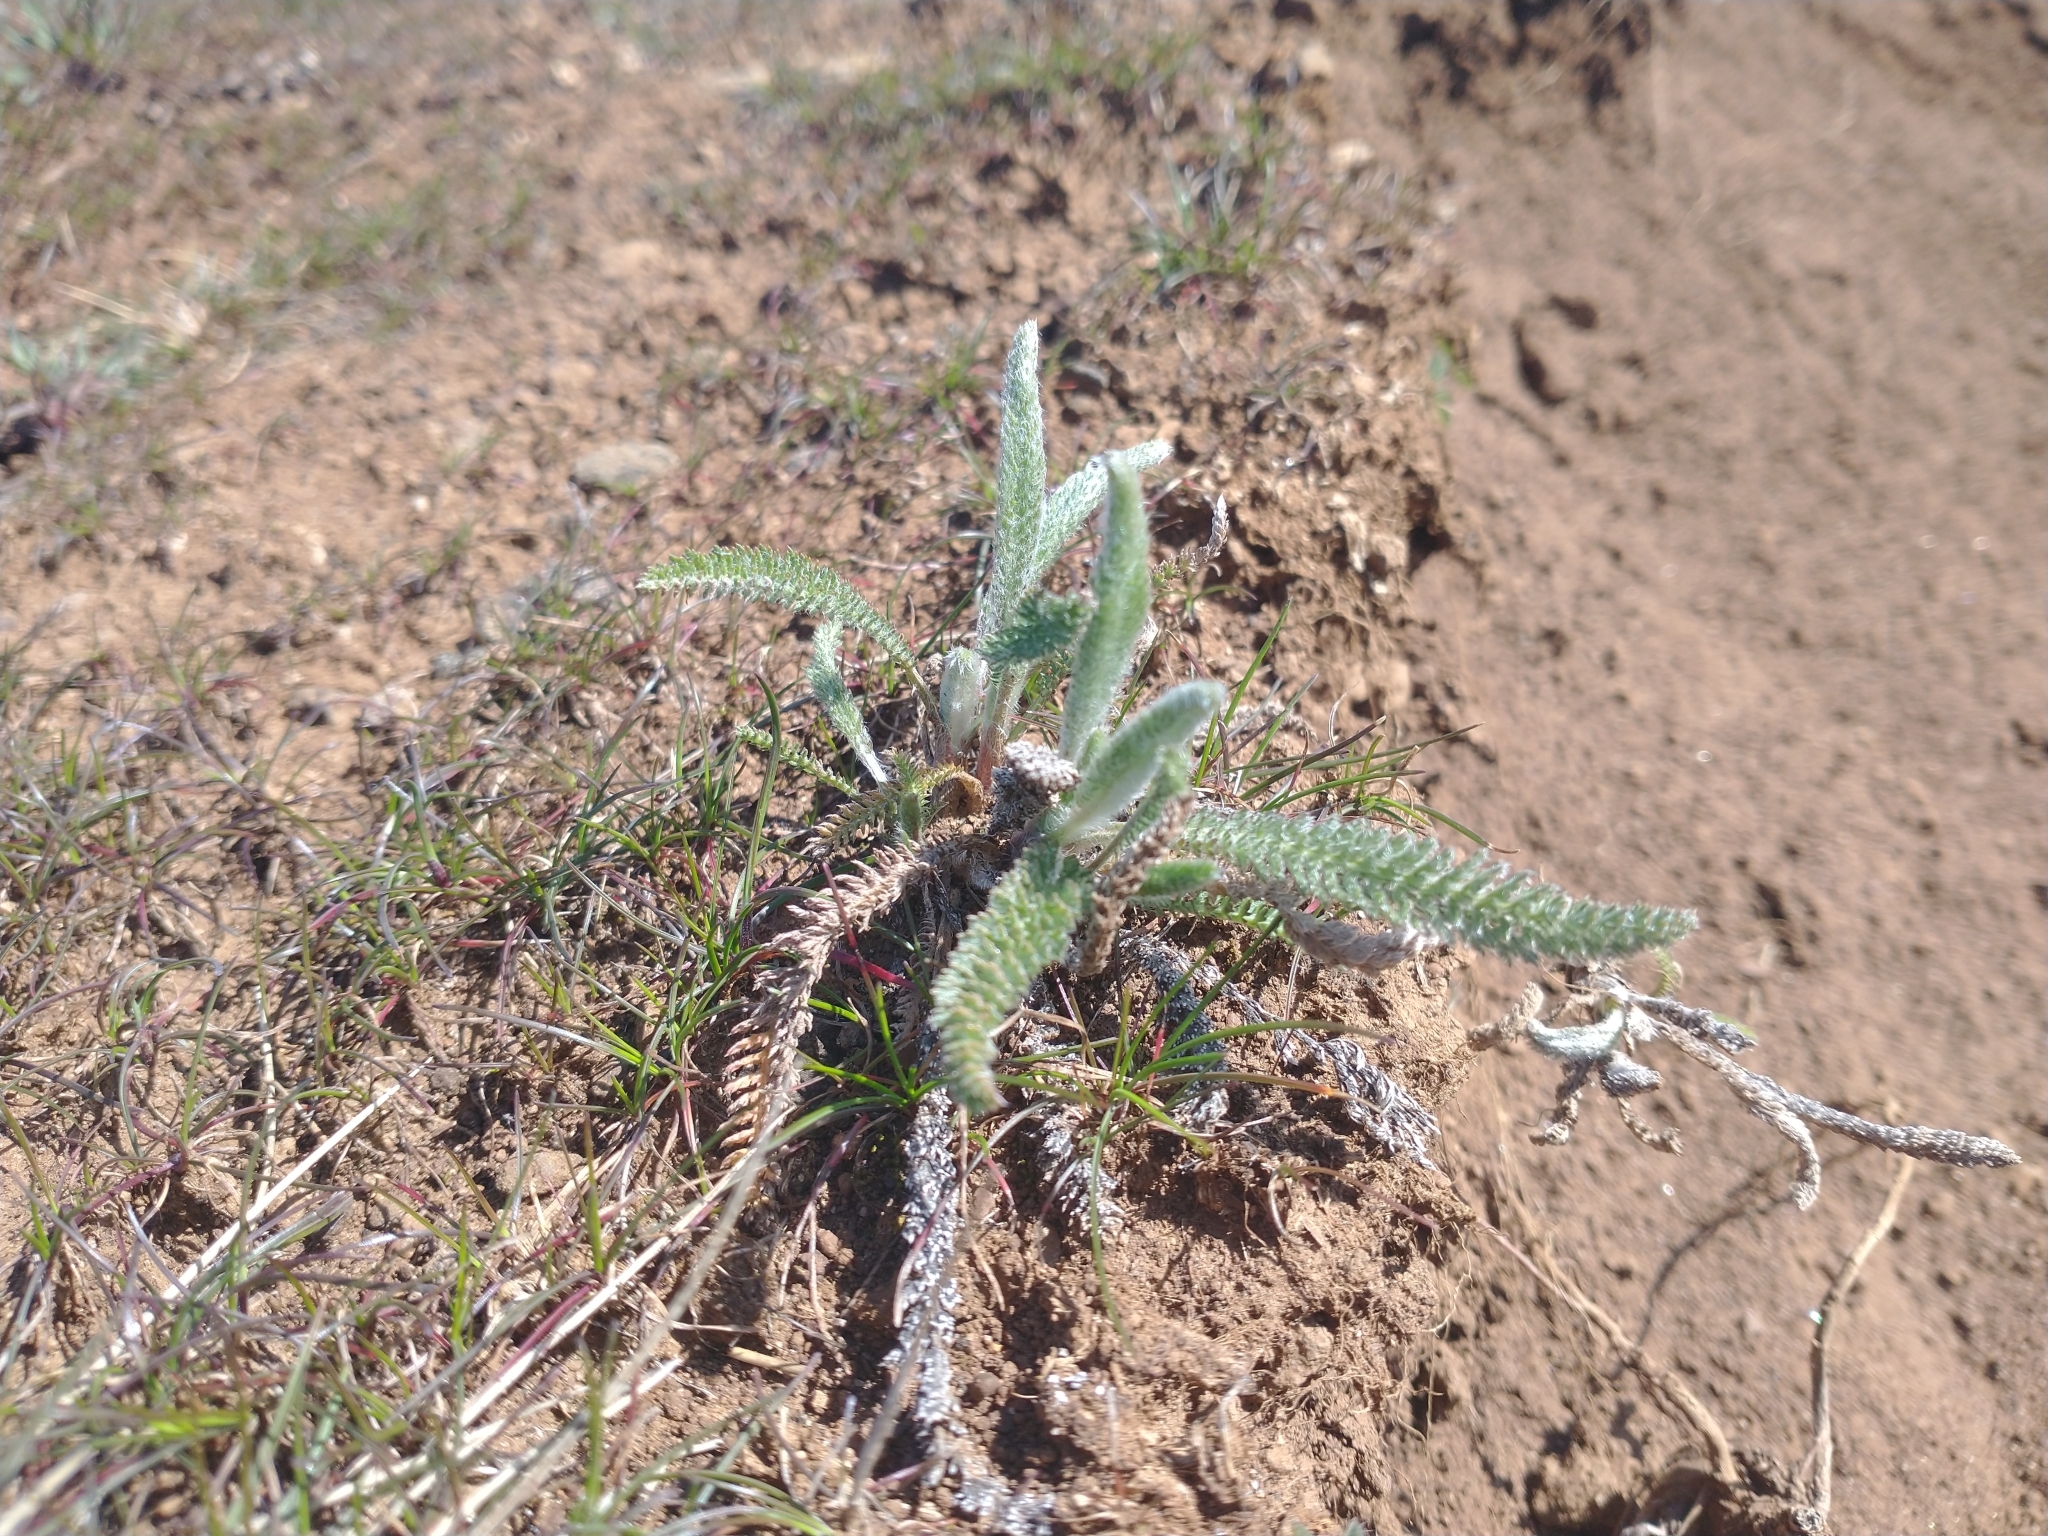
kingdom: Plantae
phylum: Tracheophyta
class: Magnoliopsida
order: Asterales
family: Asteraceae
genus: Achillea
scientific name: Achillea millefolium
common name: Yarrow
